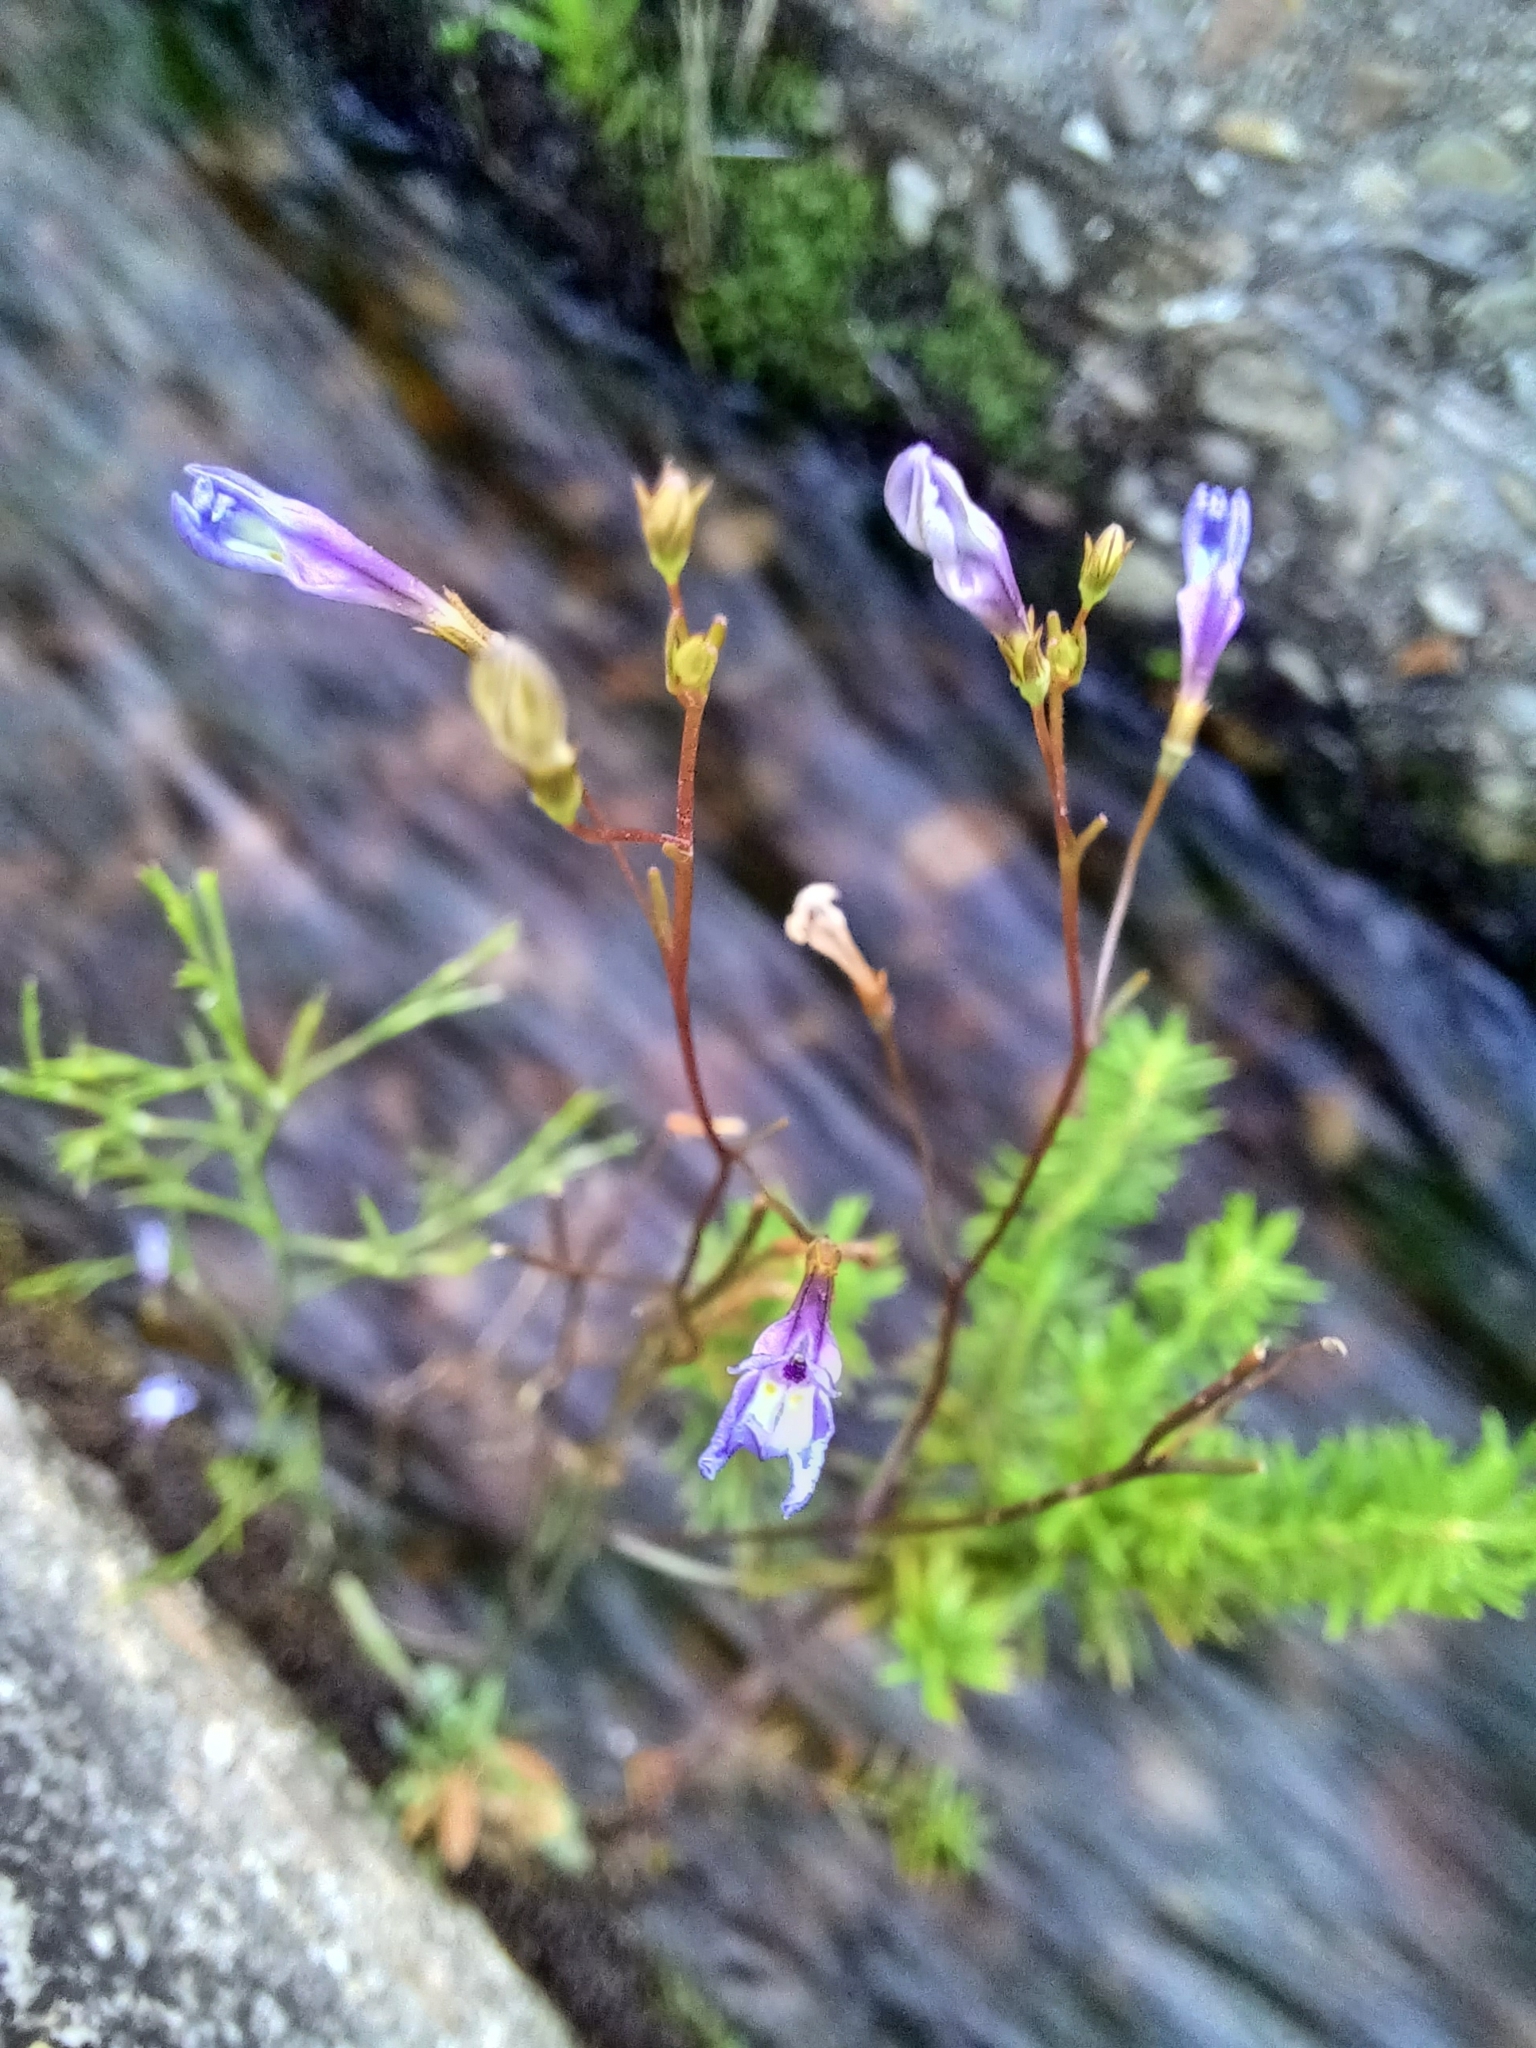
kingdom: Plantae
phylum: Tracheophyta
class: Magnoliopsida
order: Asterales
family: Campanulaceae
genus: Wimmerella
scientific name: Wimmerella arabidea
